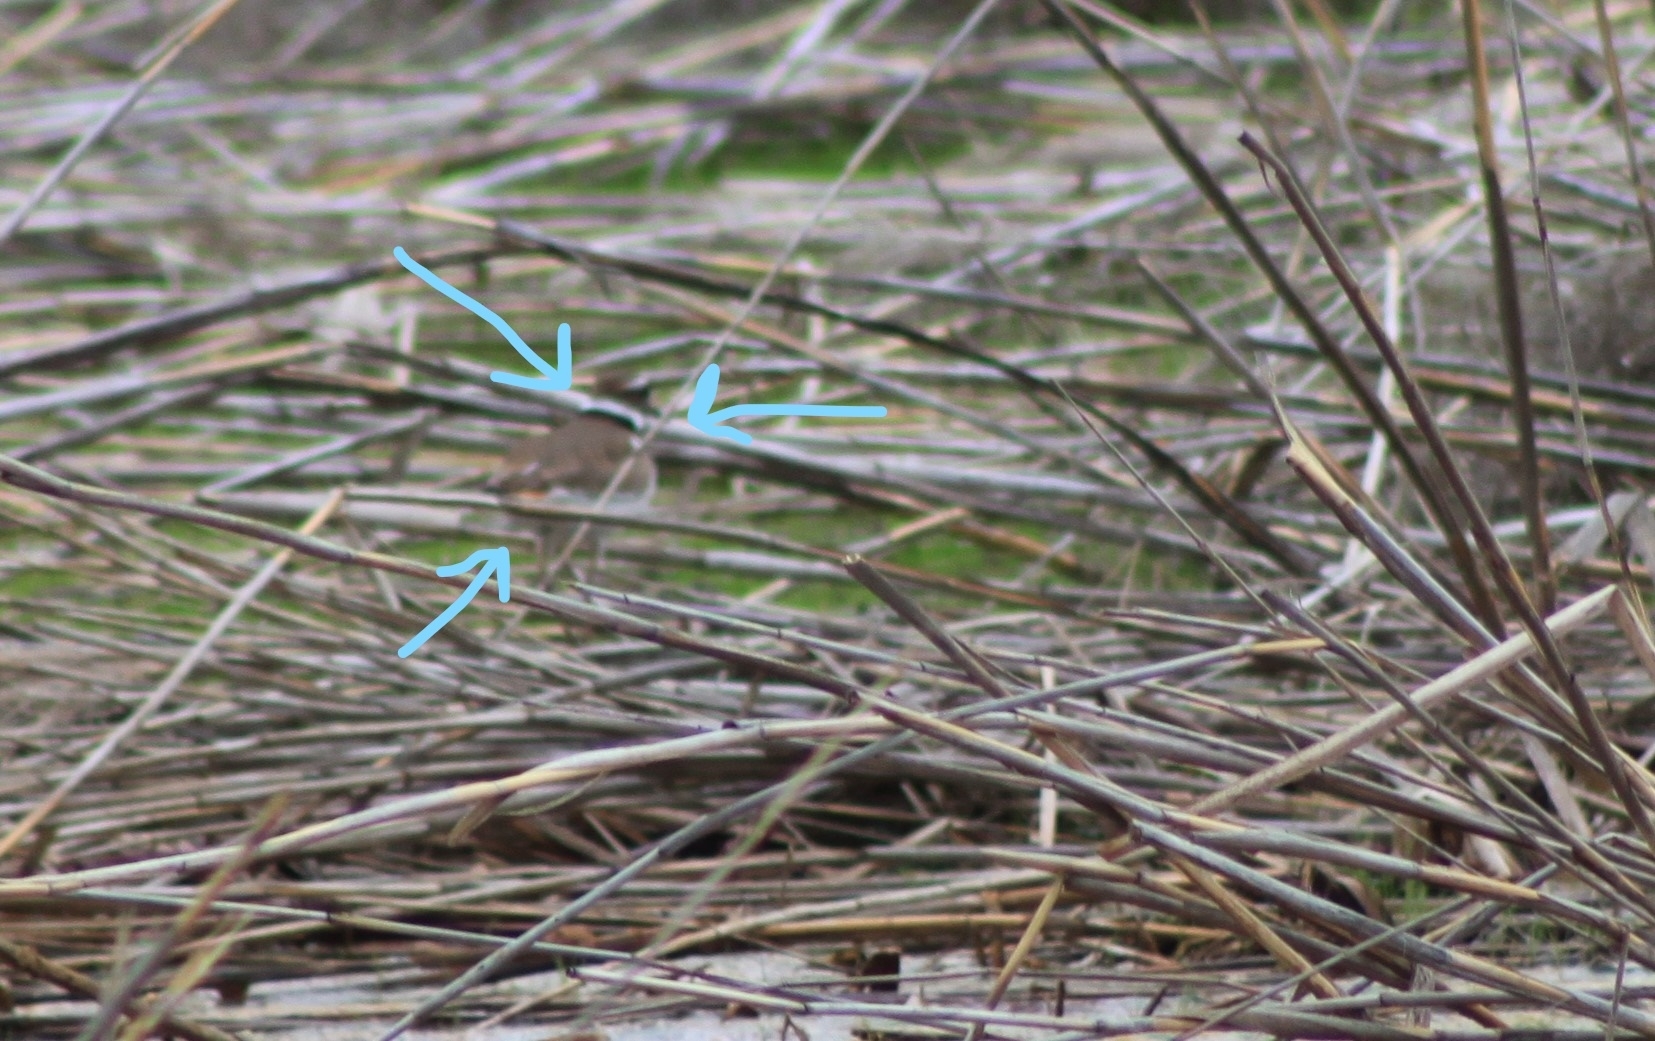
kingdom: Animalia
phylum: Chordata
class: Aves
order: Charadriiformes
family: Charadriidae
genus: Charadrius
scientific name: Charadrius vociferus
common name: Killdeer
